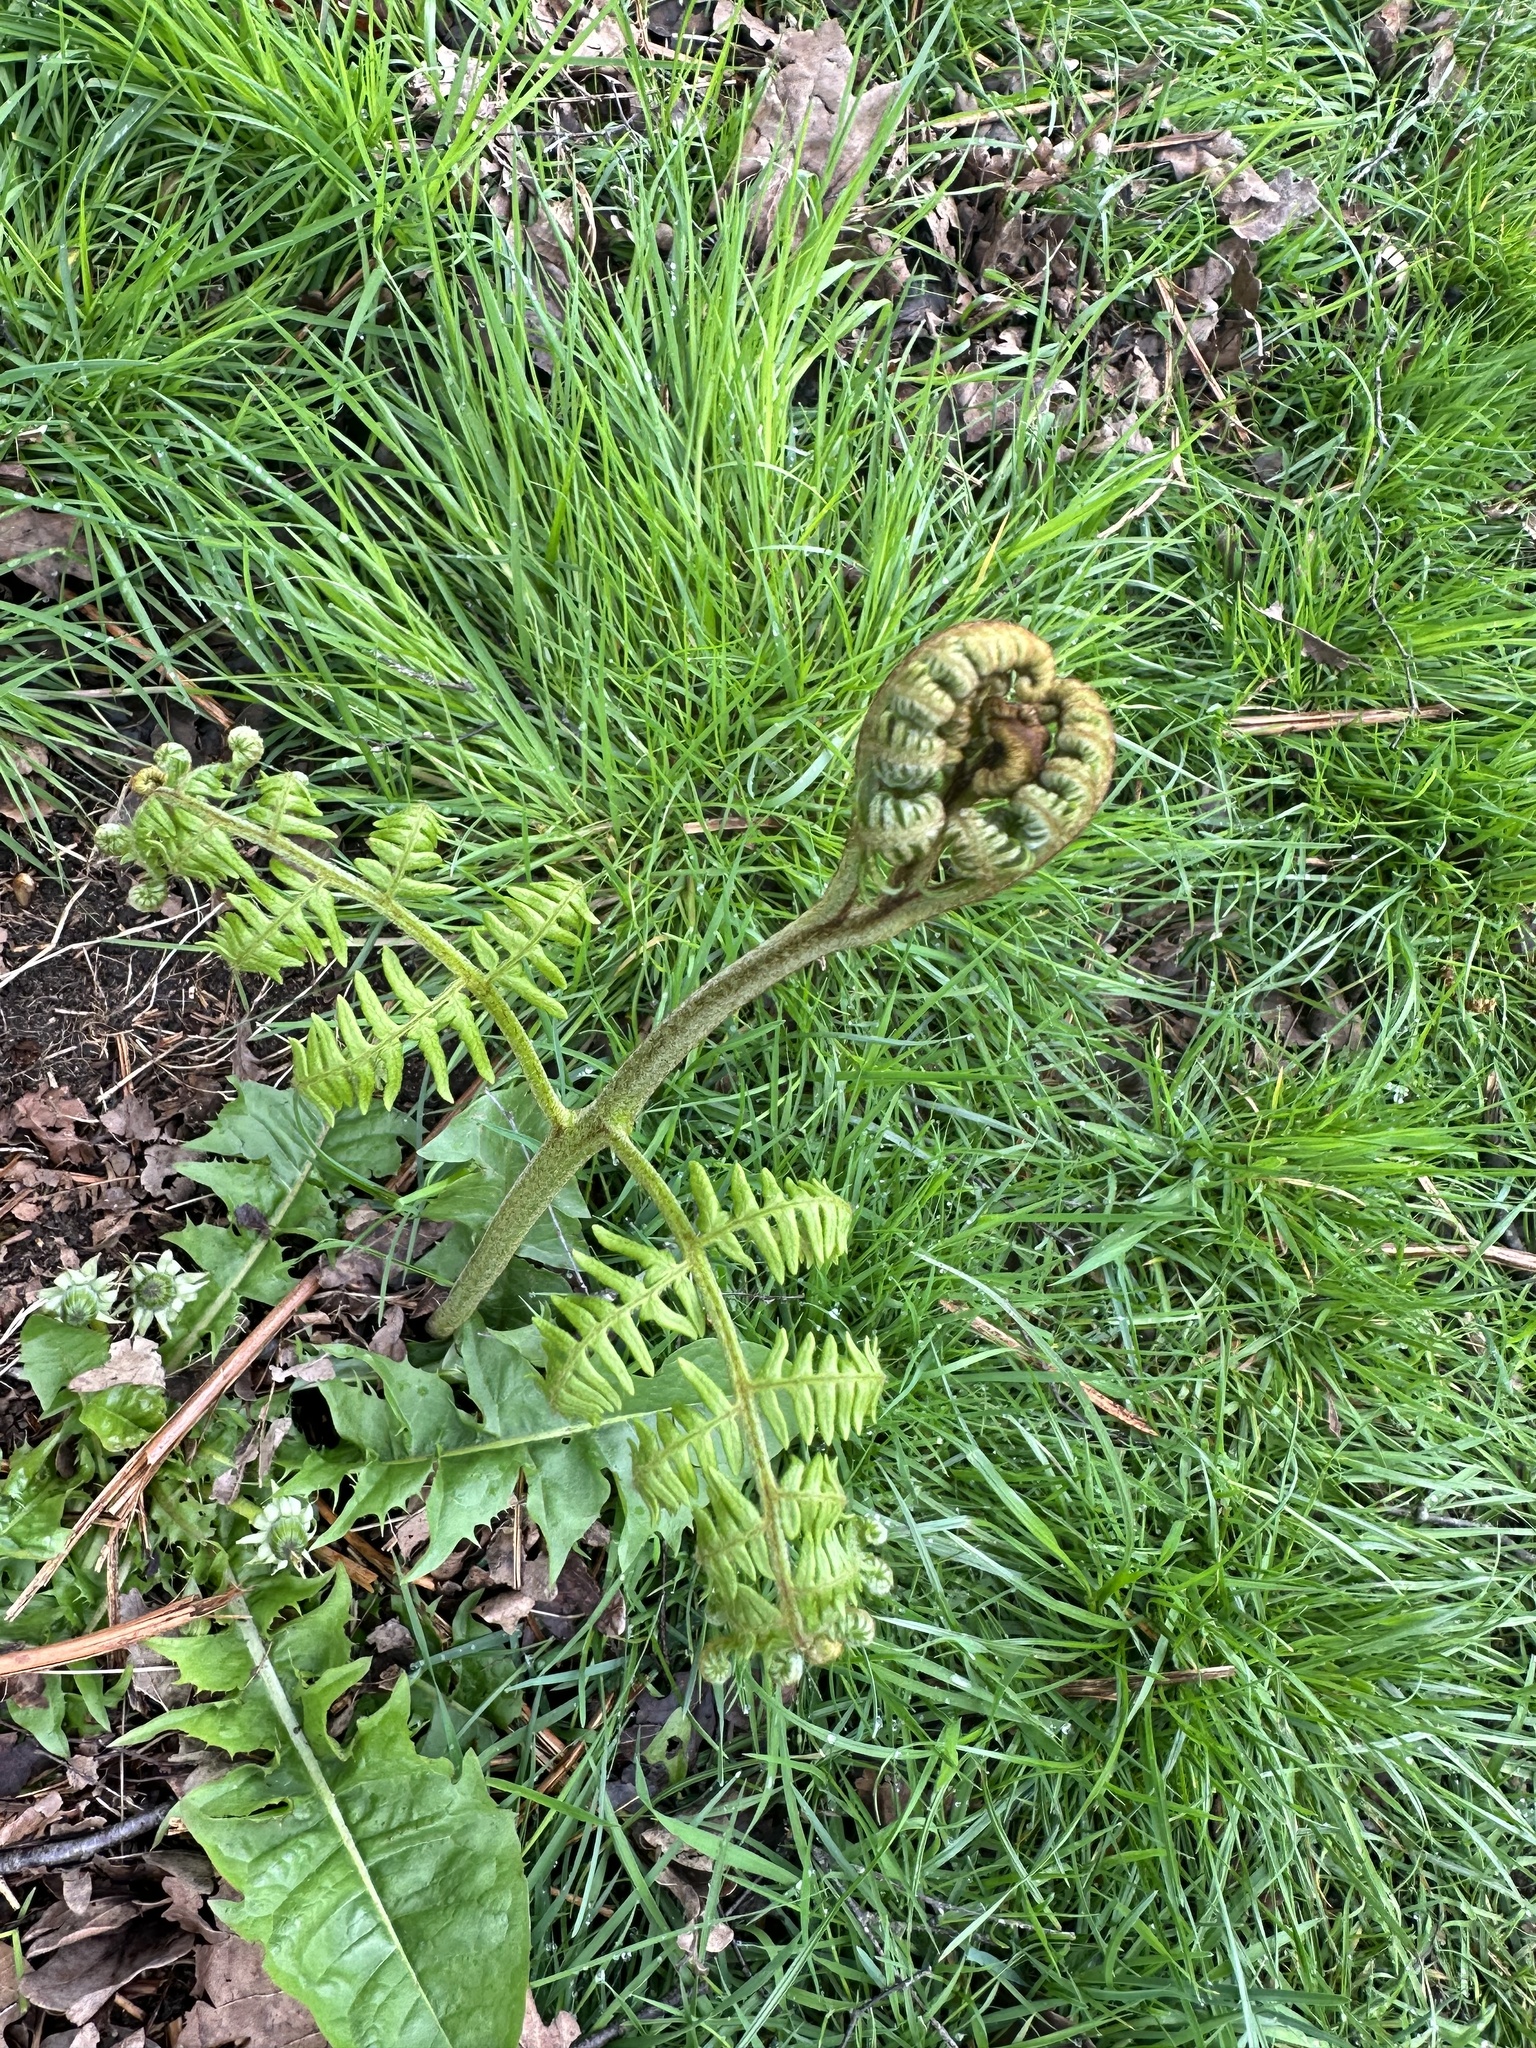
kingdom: Plantae
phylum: Tracheophyta
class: Polypodiopsida
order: Polypodiales
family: Dennstaedtiaceae
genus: Pteridium
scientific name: Pteridium aquilinum
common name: Bracken
